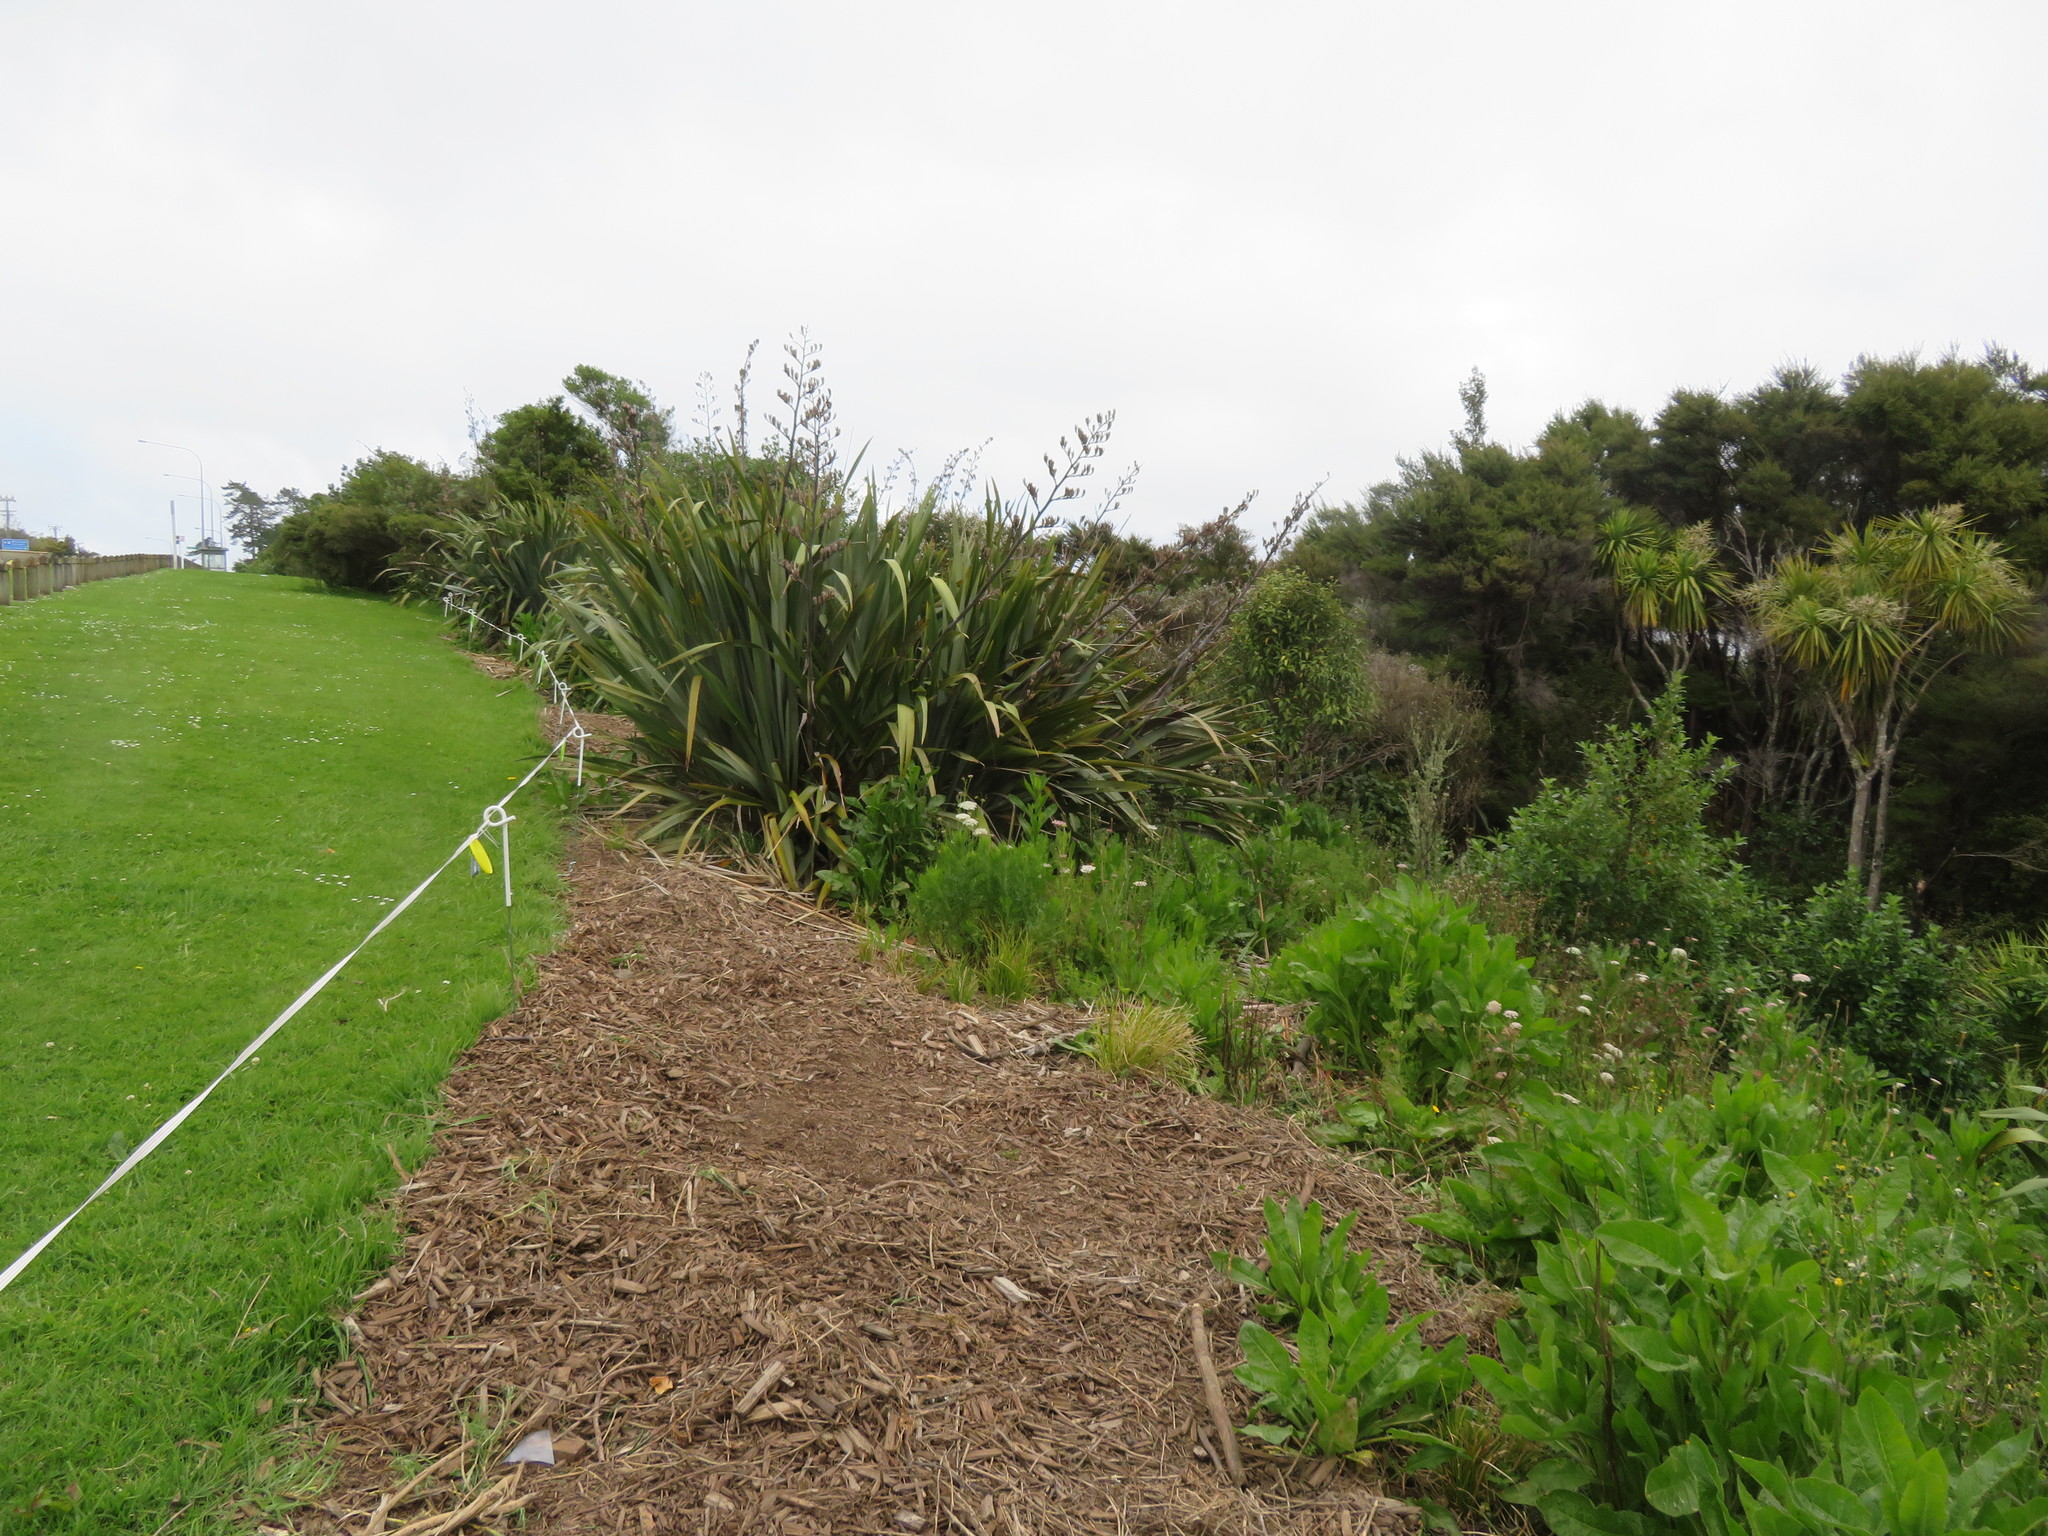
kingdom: Plantae
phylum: Tracheophyta
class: Liliopsida
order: Poales
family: Poaceae
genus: Cenchrus
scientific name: Cenchrus clandestinus
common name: Kikuyugrass
